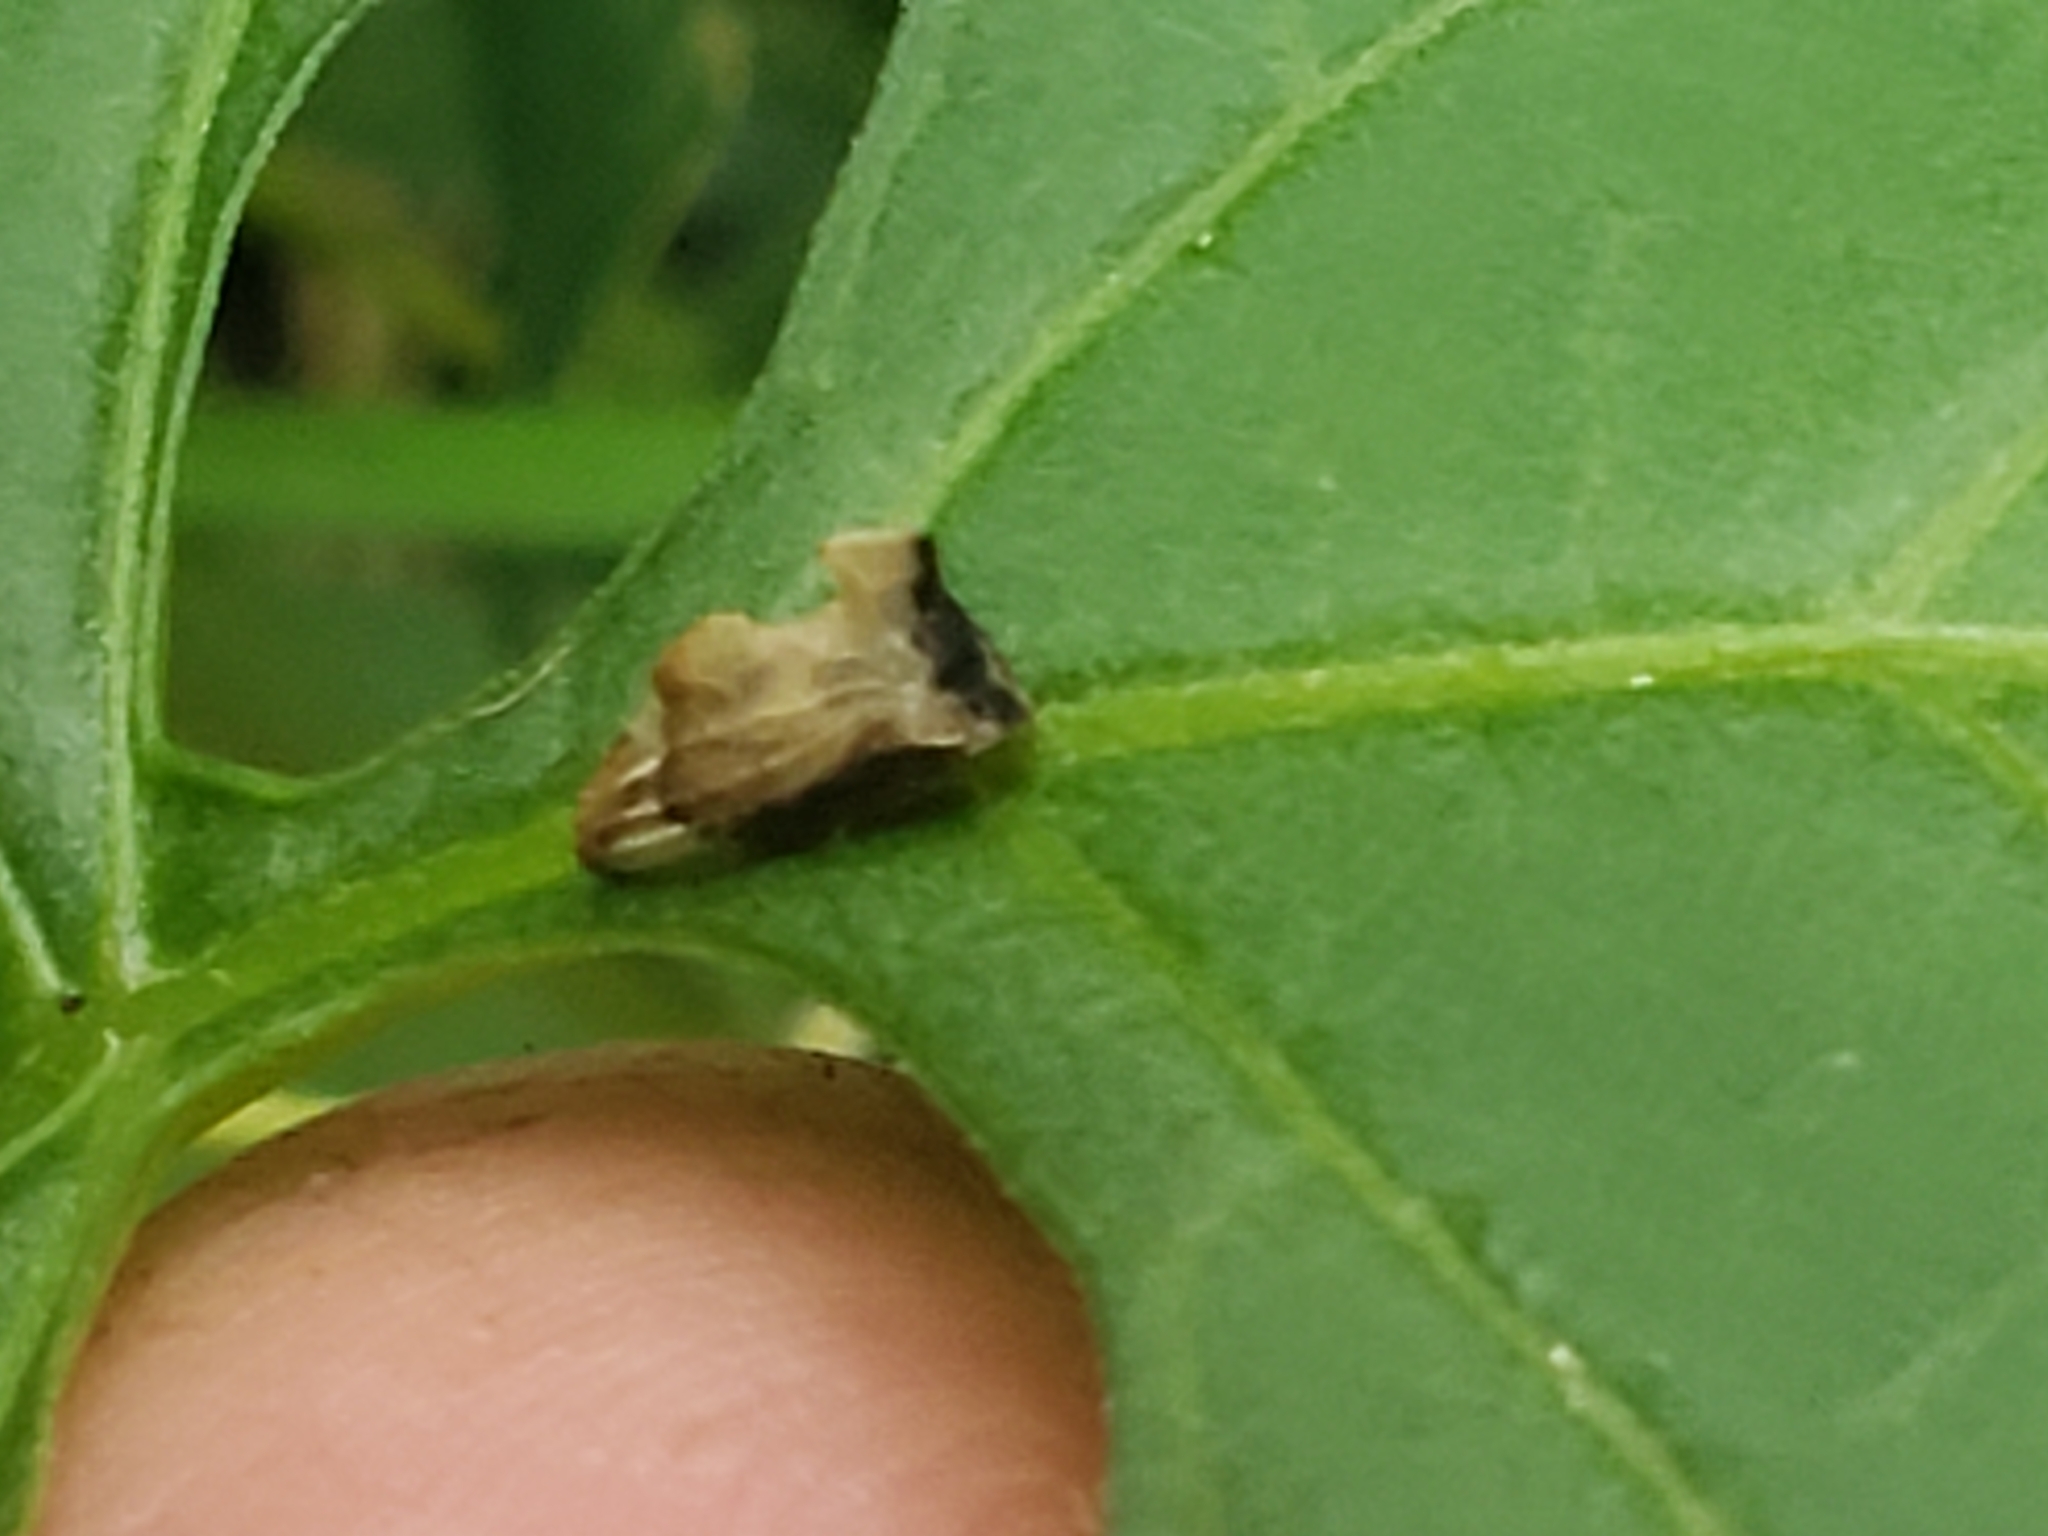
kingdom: Animalia
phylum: Arthropoda
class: Insecta
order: Hemiptera
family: Membracidae
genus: Entylia
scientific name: Entylia carinata
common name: Keeled treehopper
